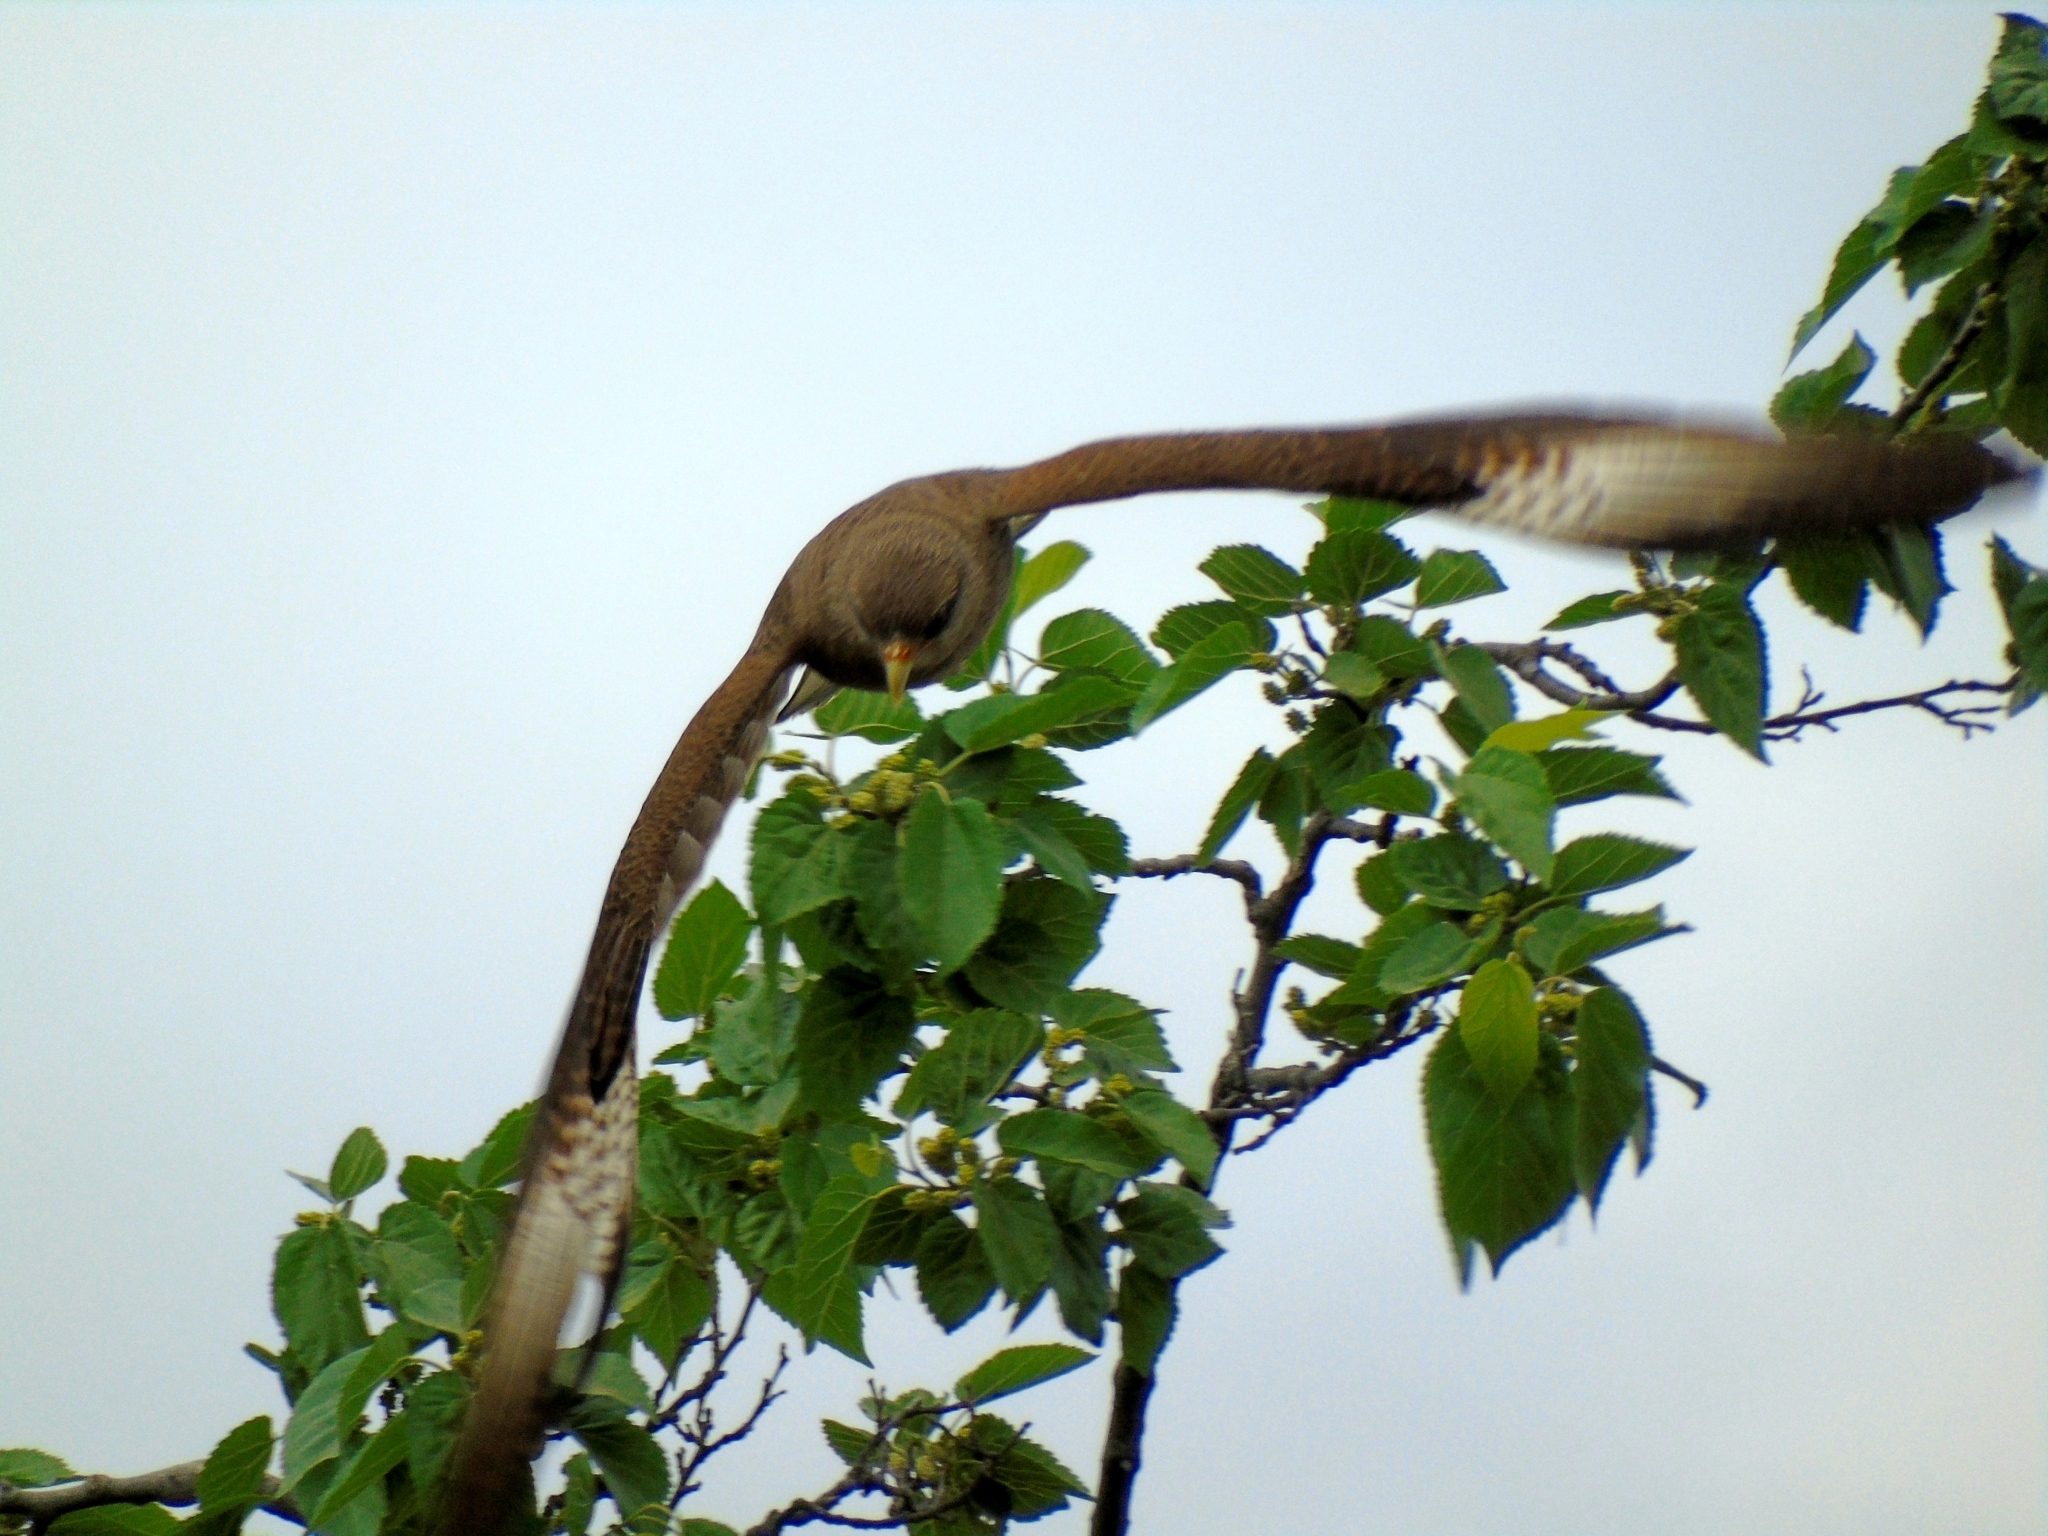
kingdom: Animalia
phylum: Chordata
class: Aves
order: Falconiformes
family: Falconidae
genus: Daptrius
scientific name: Daptrius
